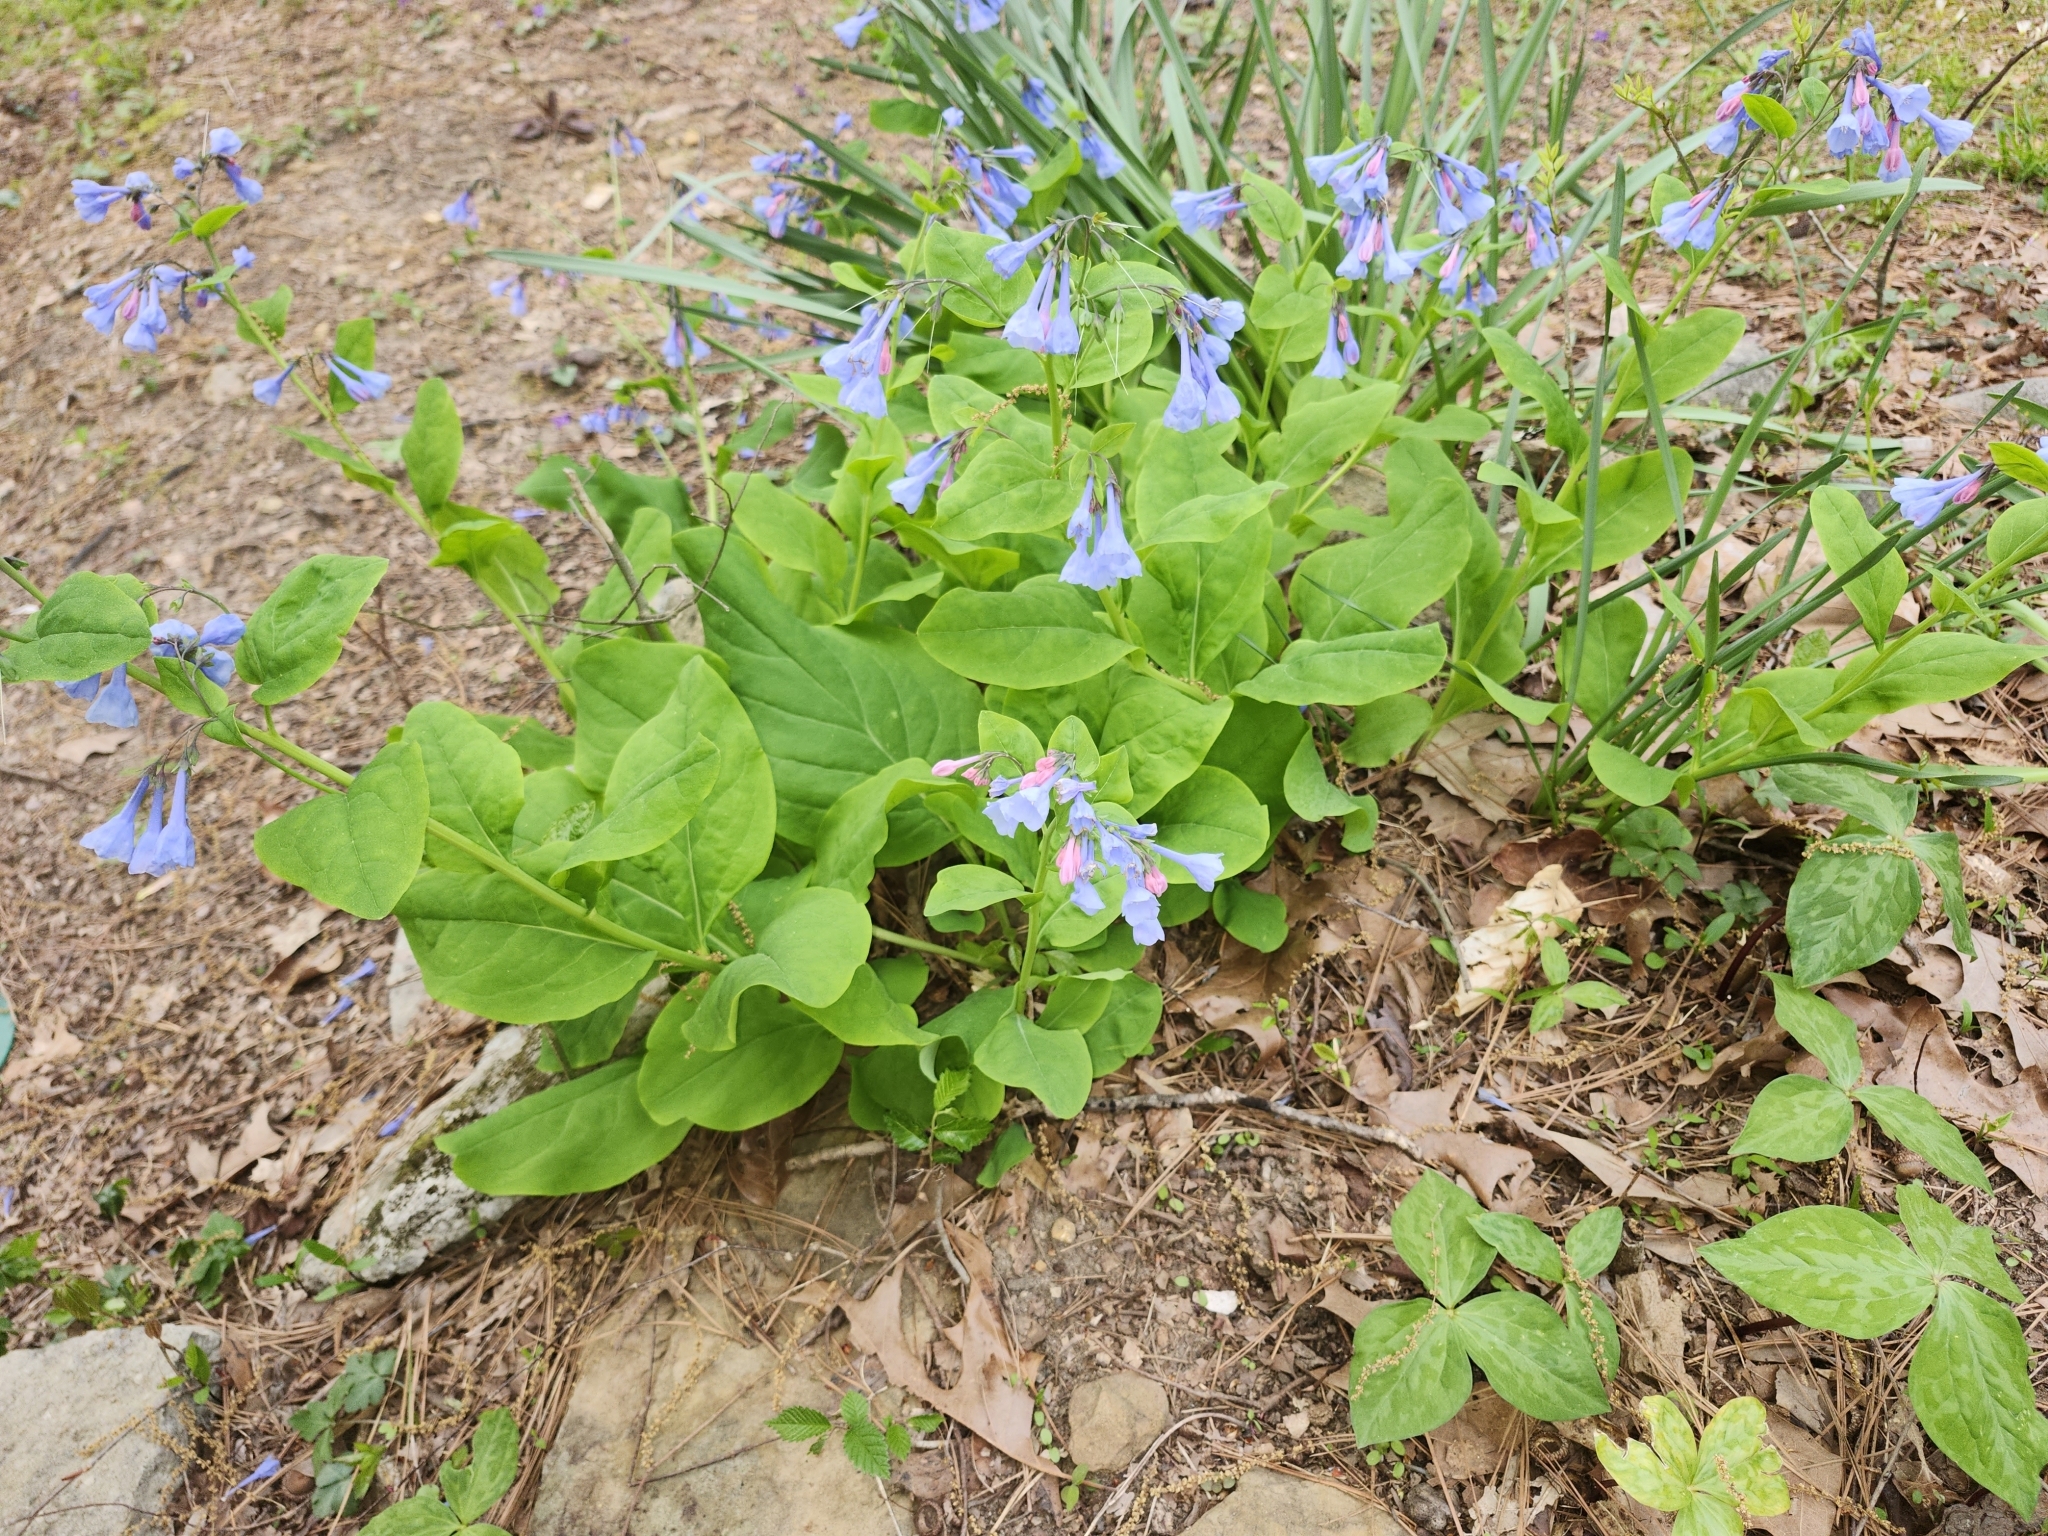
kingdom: Plantae
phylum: Tracheophyta
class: Magnoliopsida
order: Boraginales
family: Boraginaceae
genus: Mertensia
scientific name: Mertensia virginica
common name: Virginia bluebells
